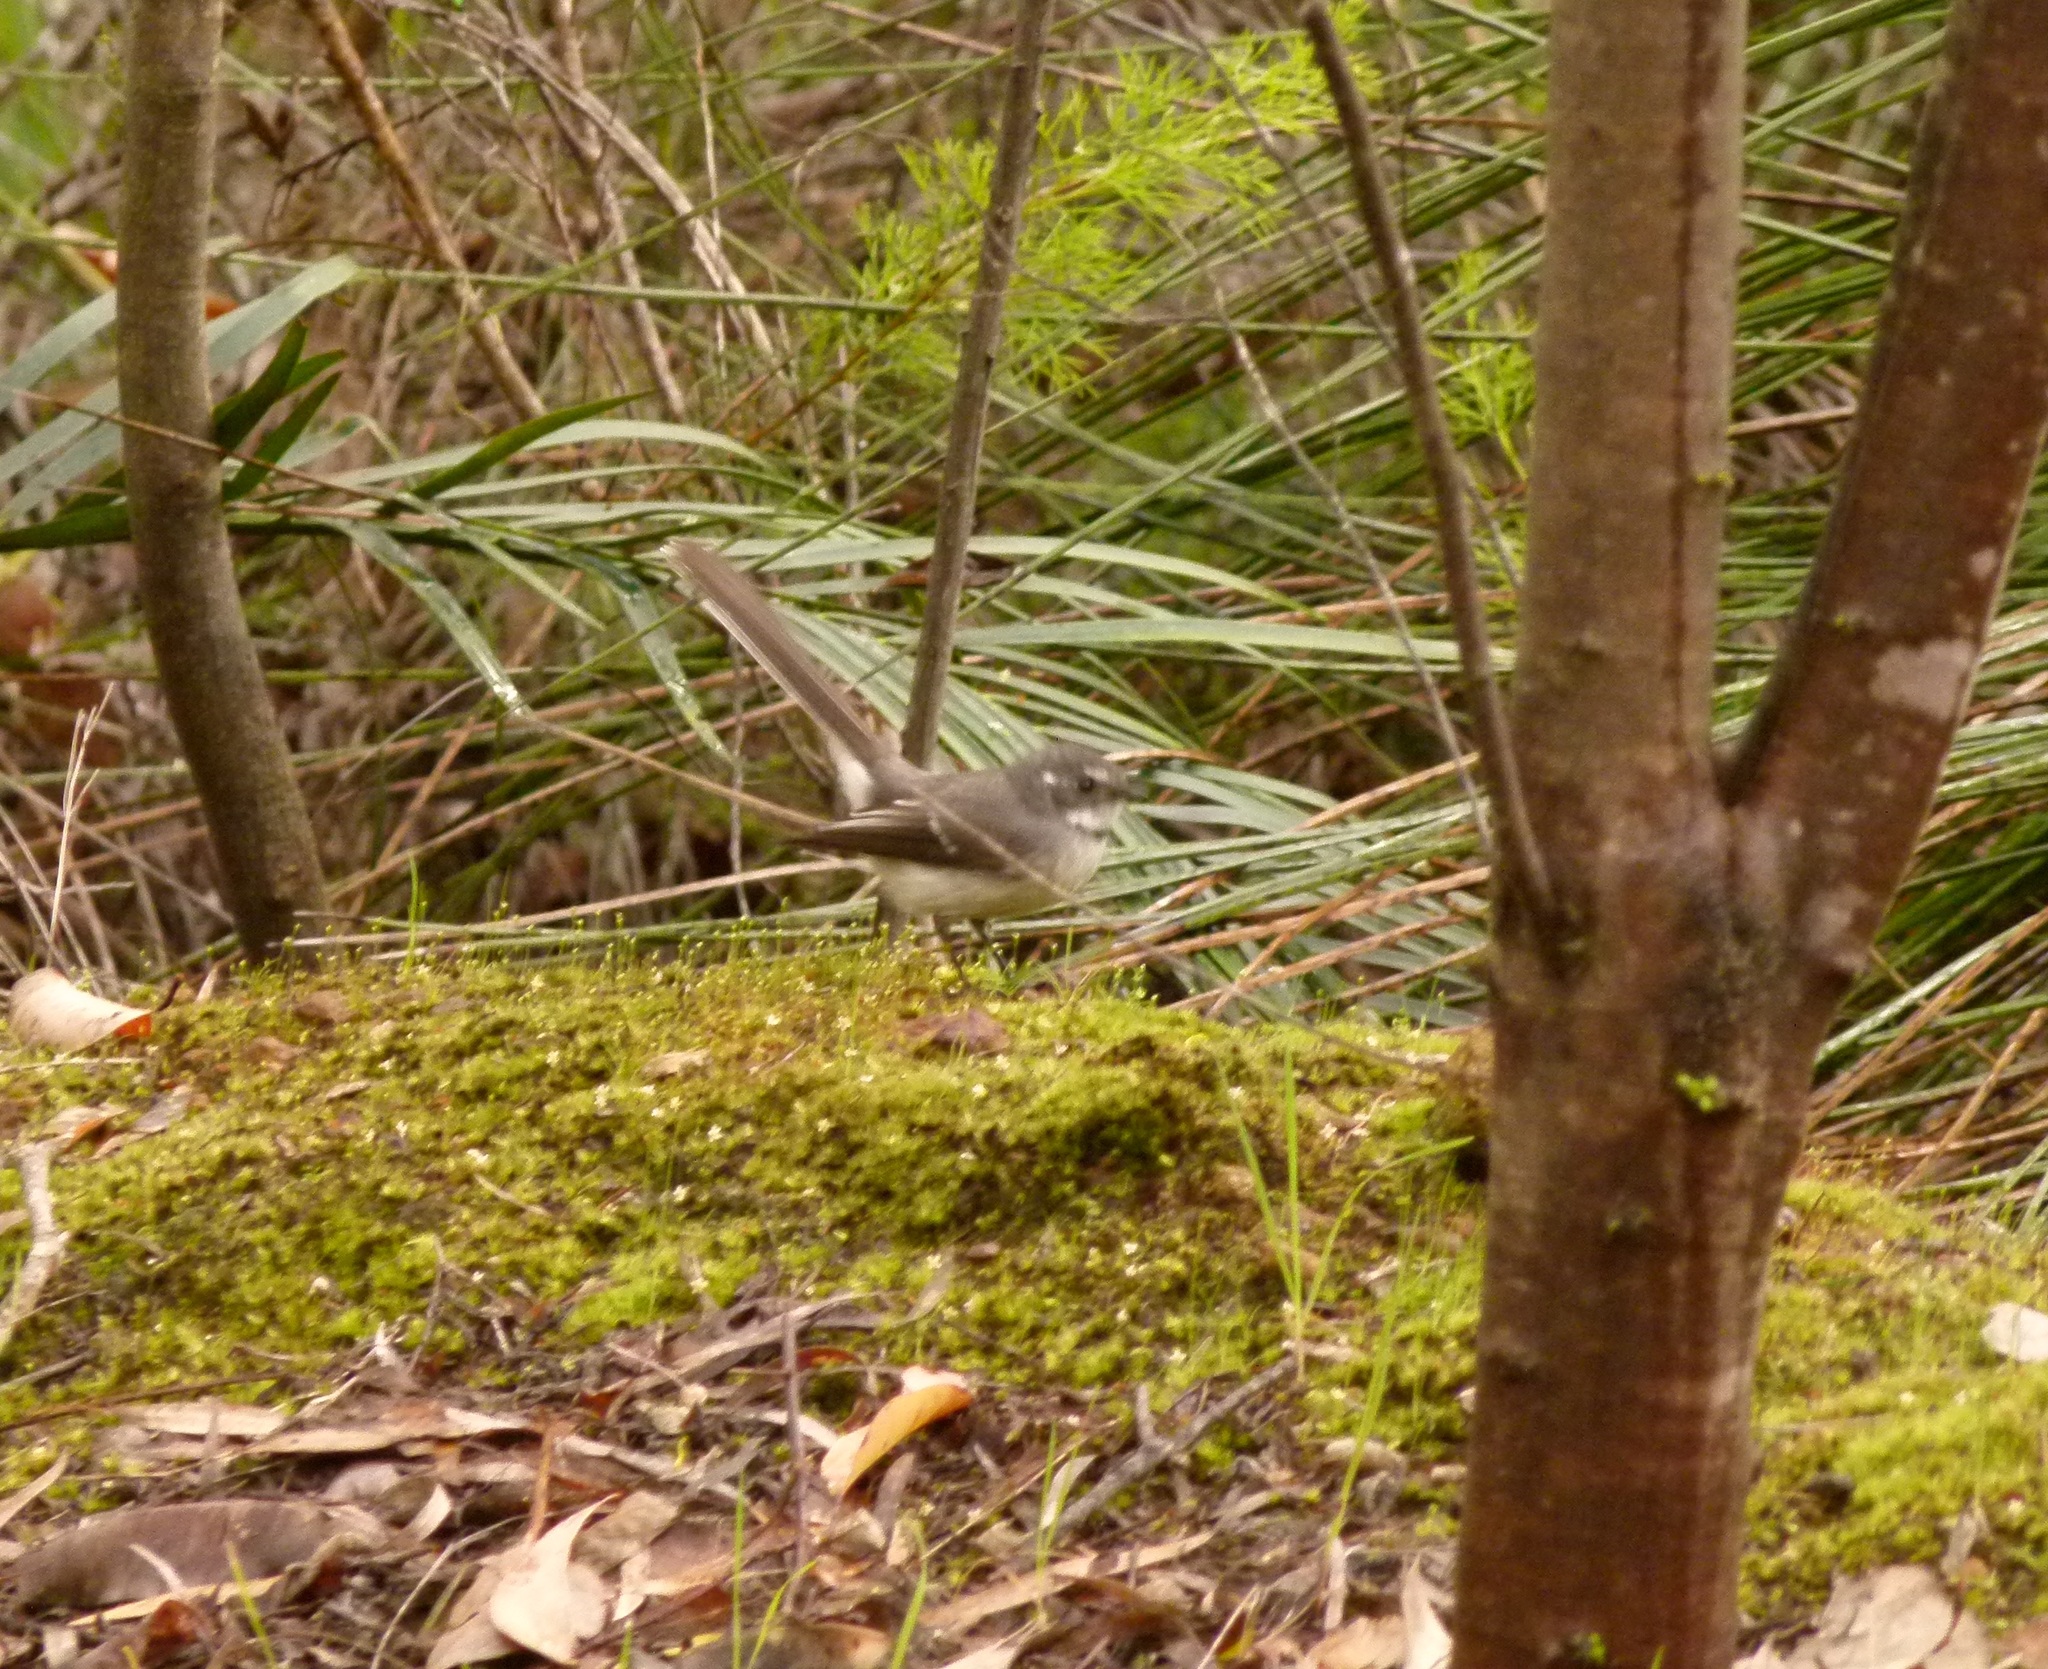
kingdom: Animalia
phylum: Chordata
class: Aves
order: Passeriformes
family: Rhipiduridae
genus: Rhipidura
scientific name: Rhipidura albiscapa
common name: Grey fantail
